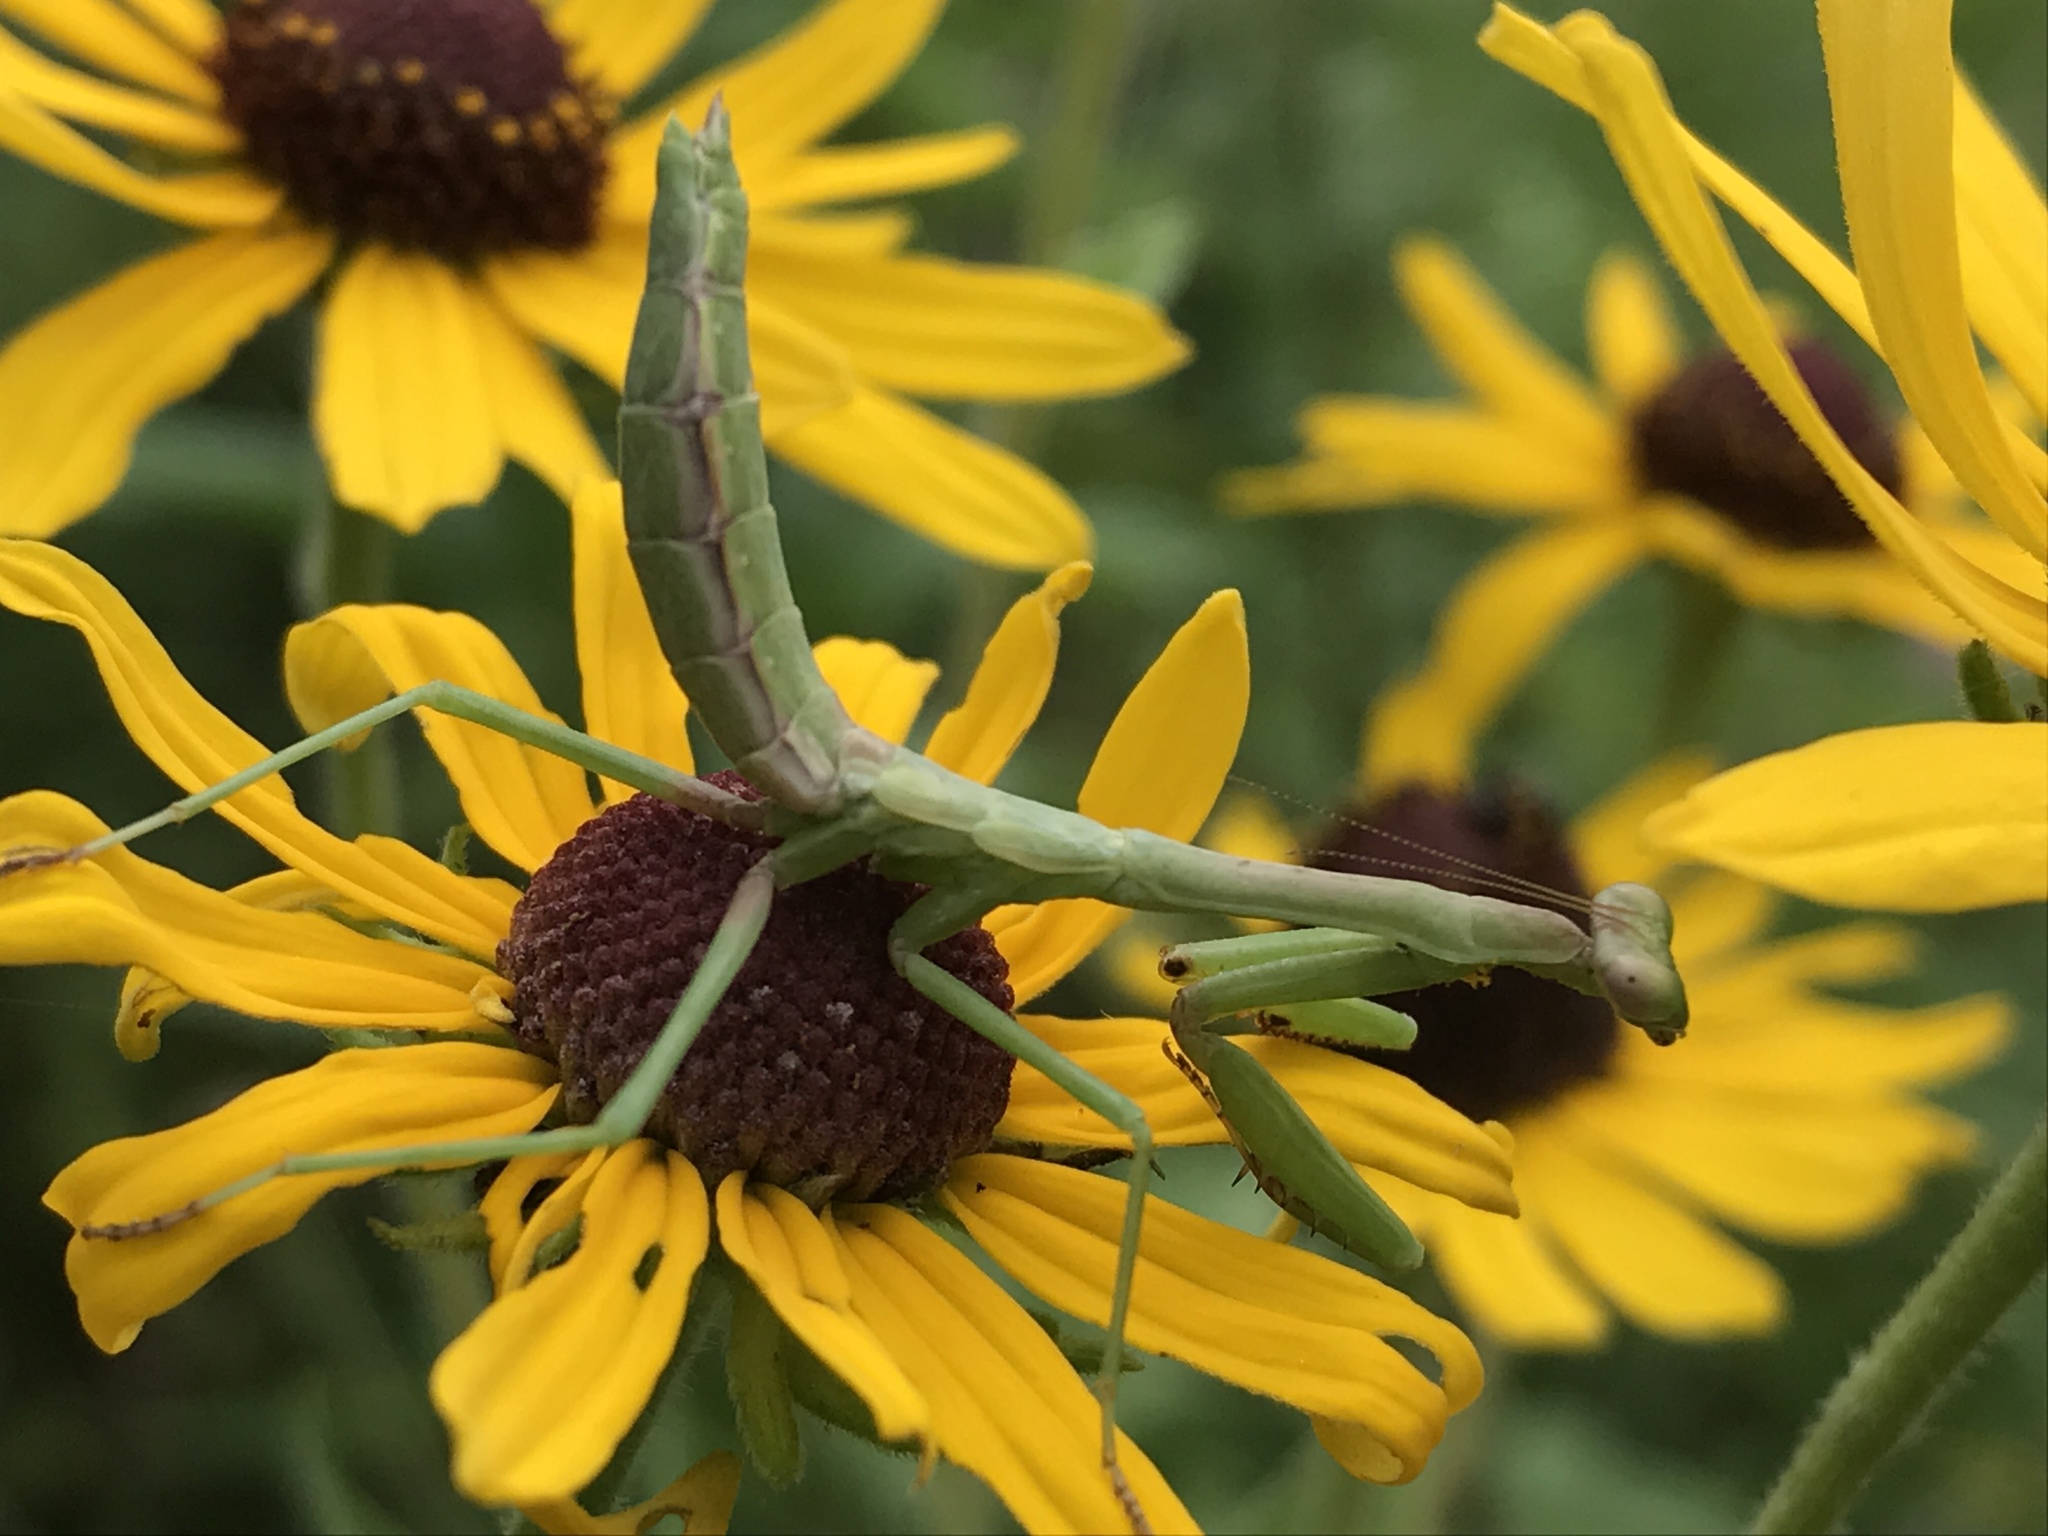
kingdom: Animalia
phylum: Arthropoda
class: Insecta
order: Mantodea
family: Mantidae
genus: Stagmomantis
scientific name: Stagmomantis carolina
